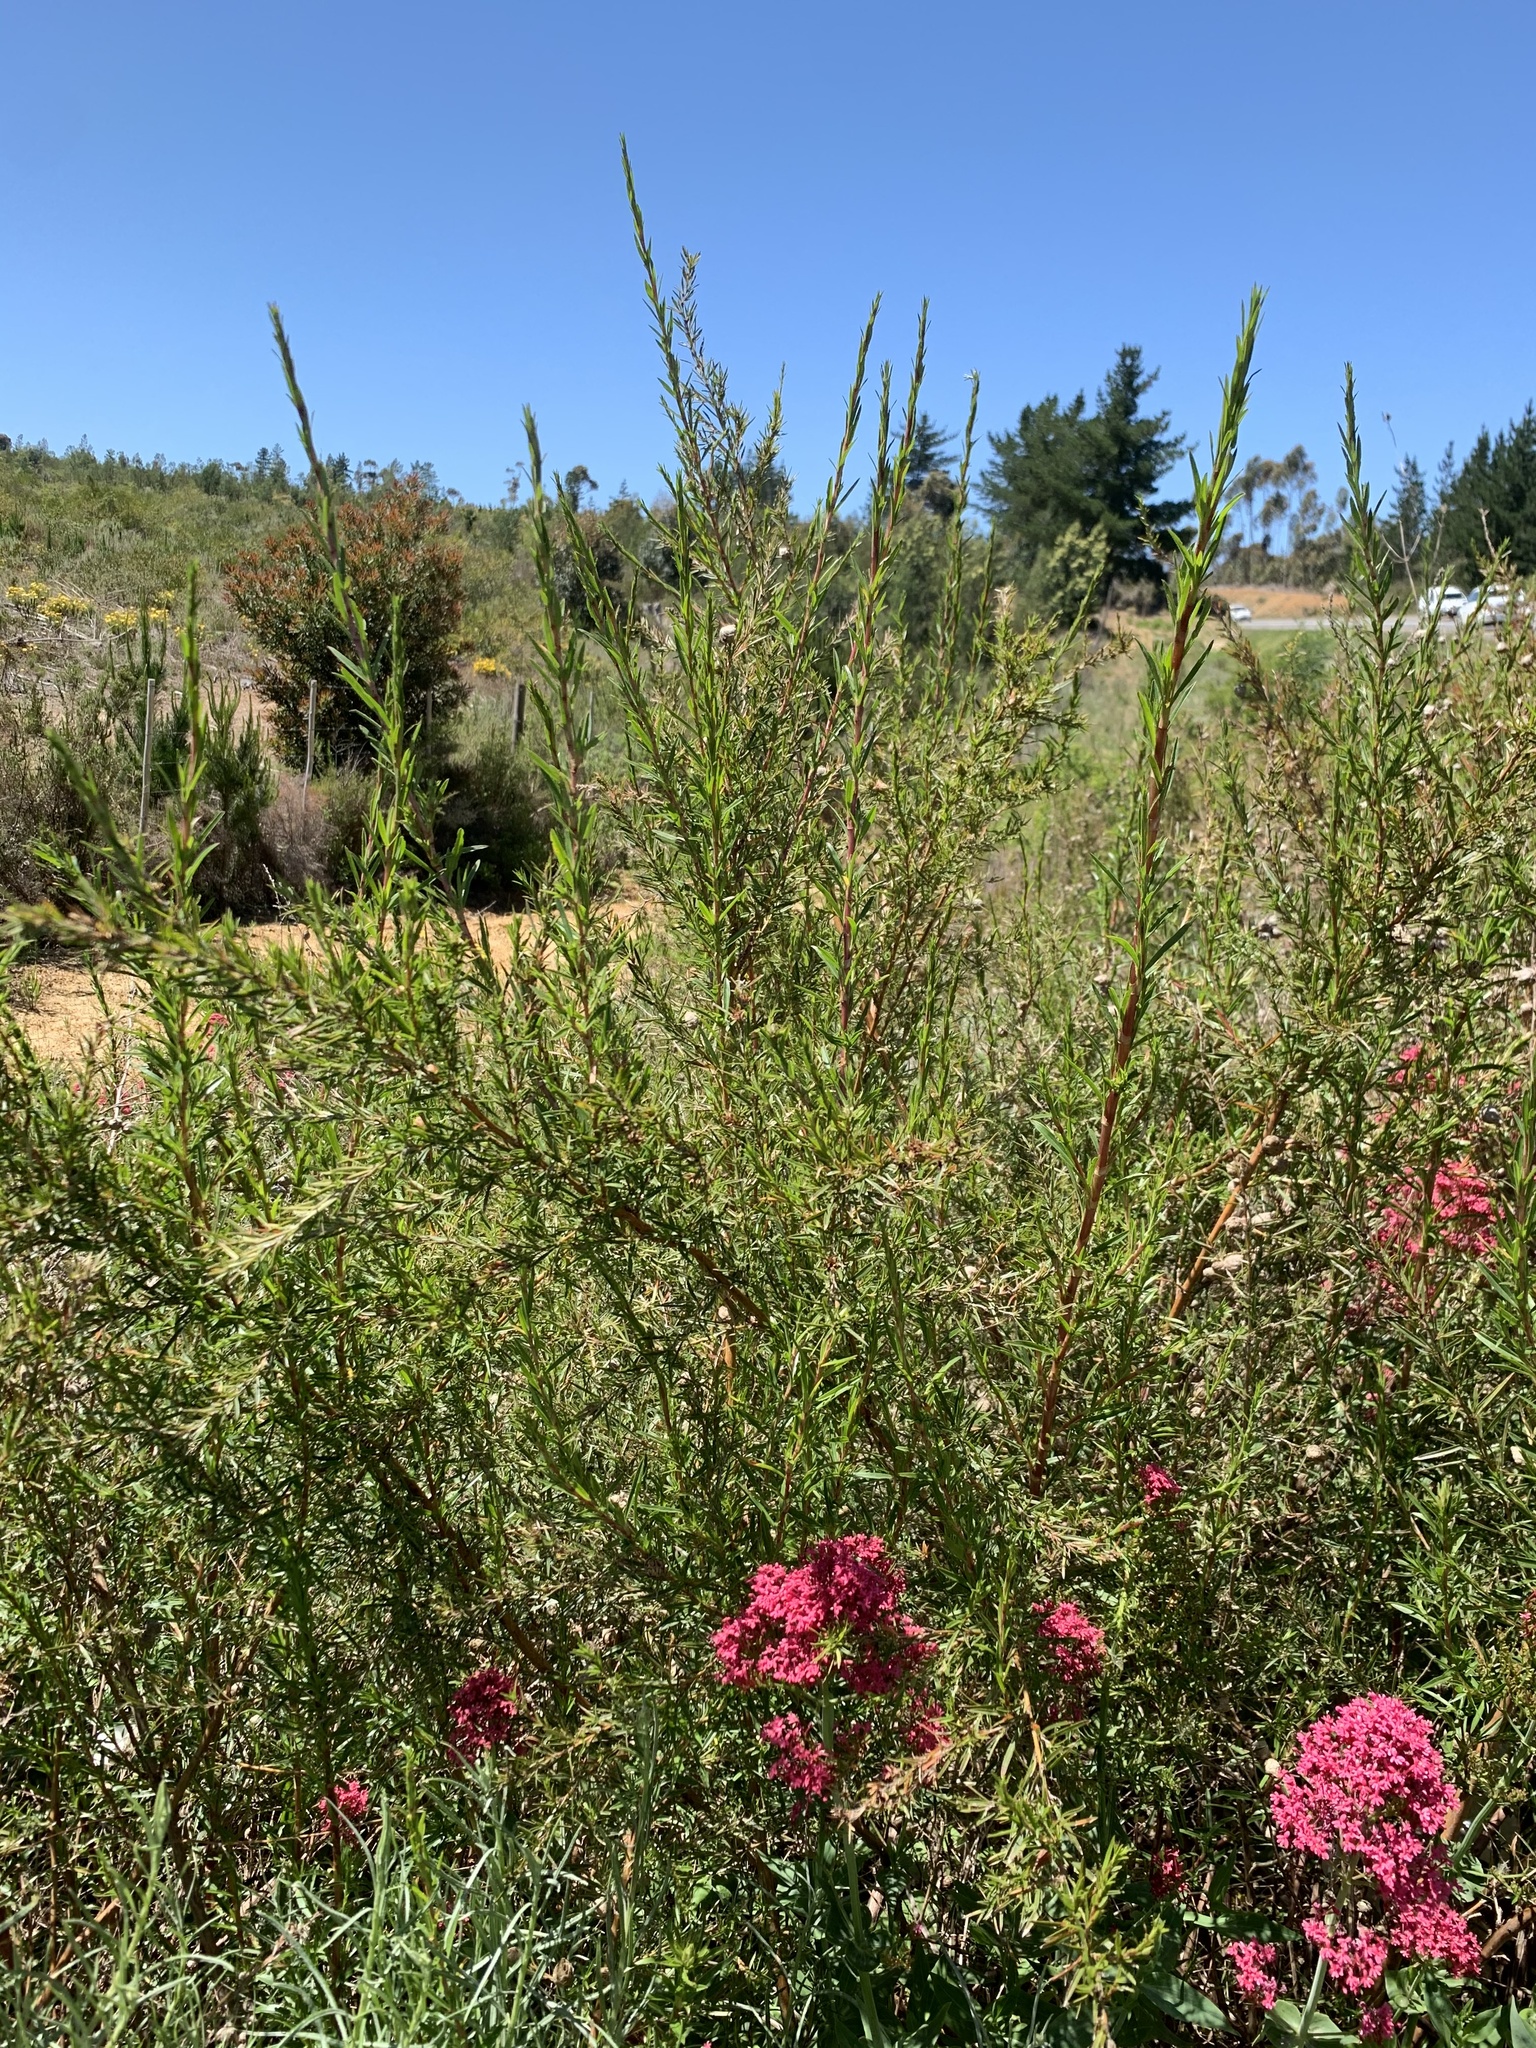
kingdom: Plantae
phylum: Tracheophyta
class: Magnoliopsida
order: Rosales
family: Rosaceae
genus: Cliffortia
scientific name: Cliffortia strobilifera
